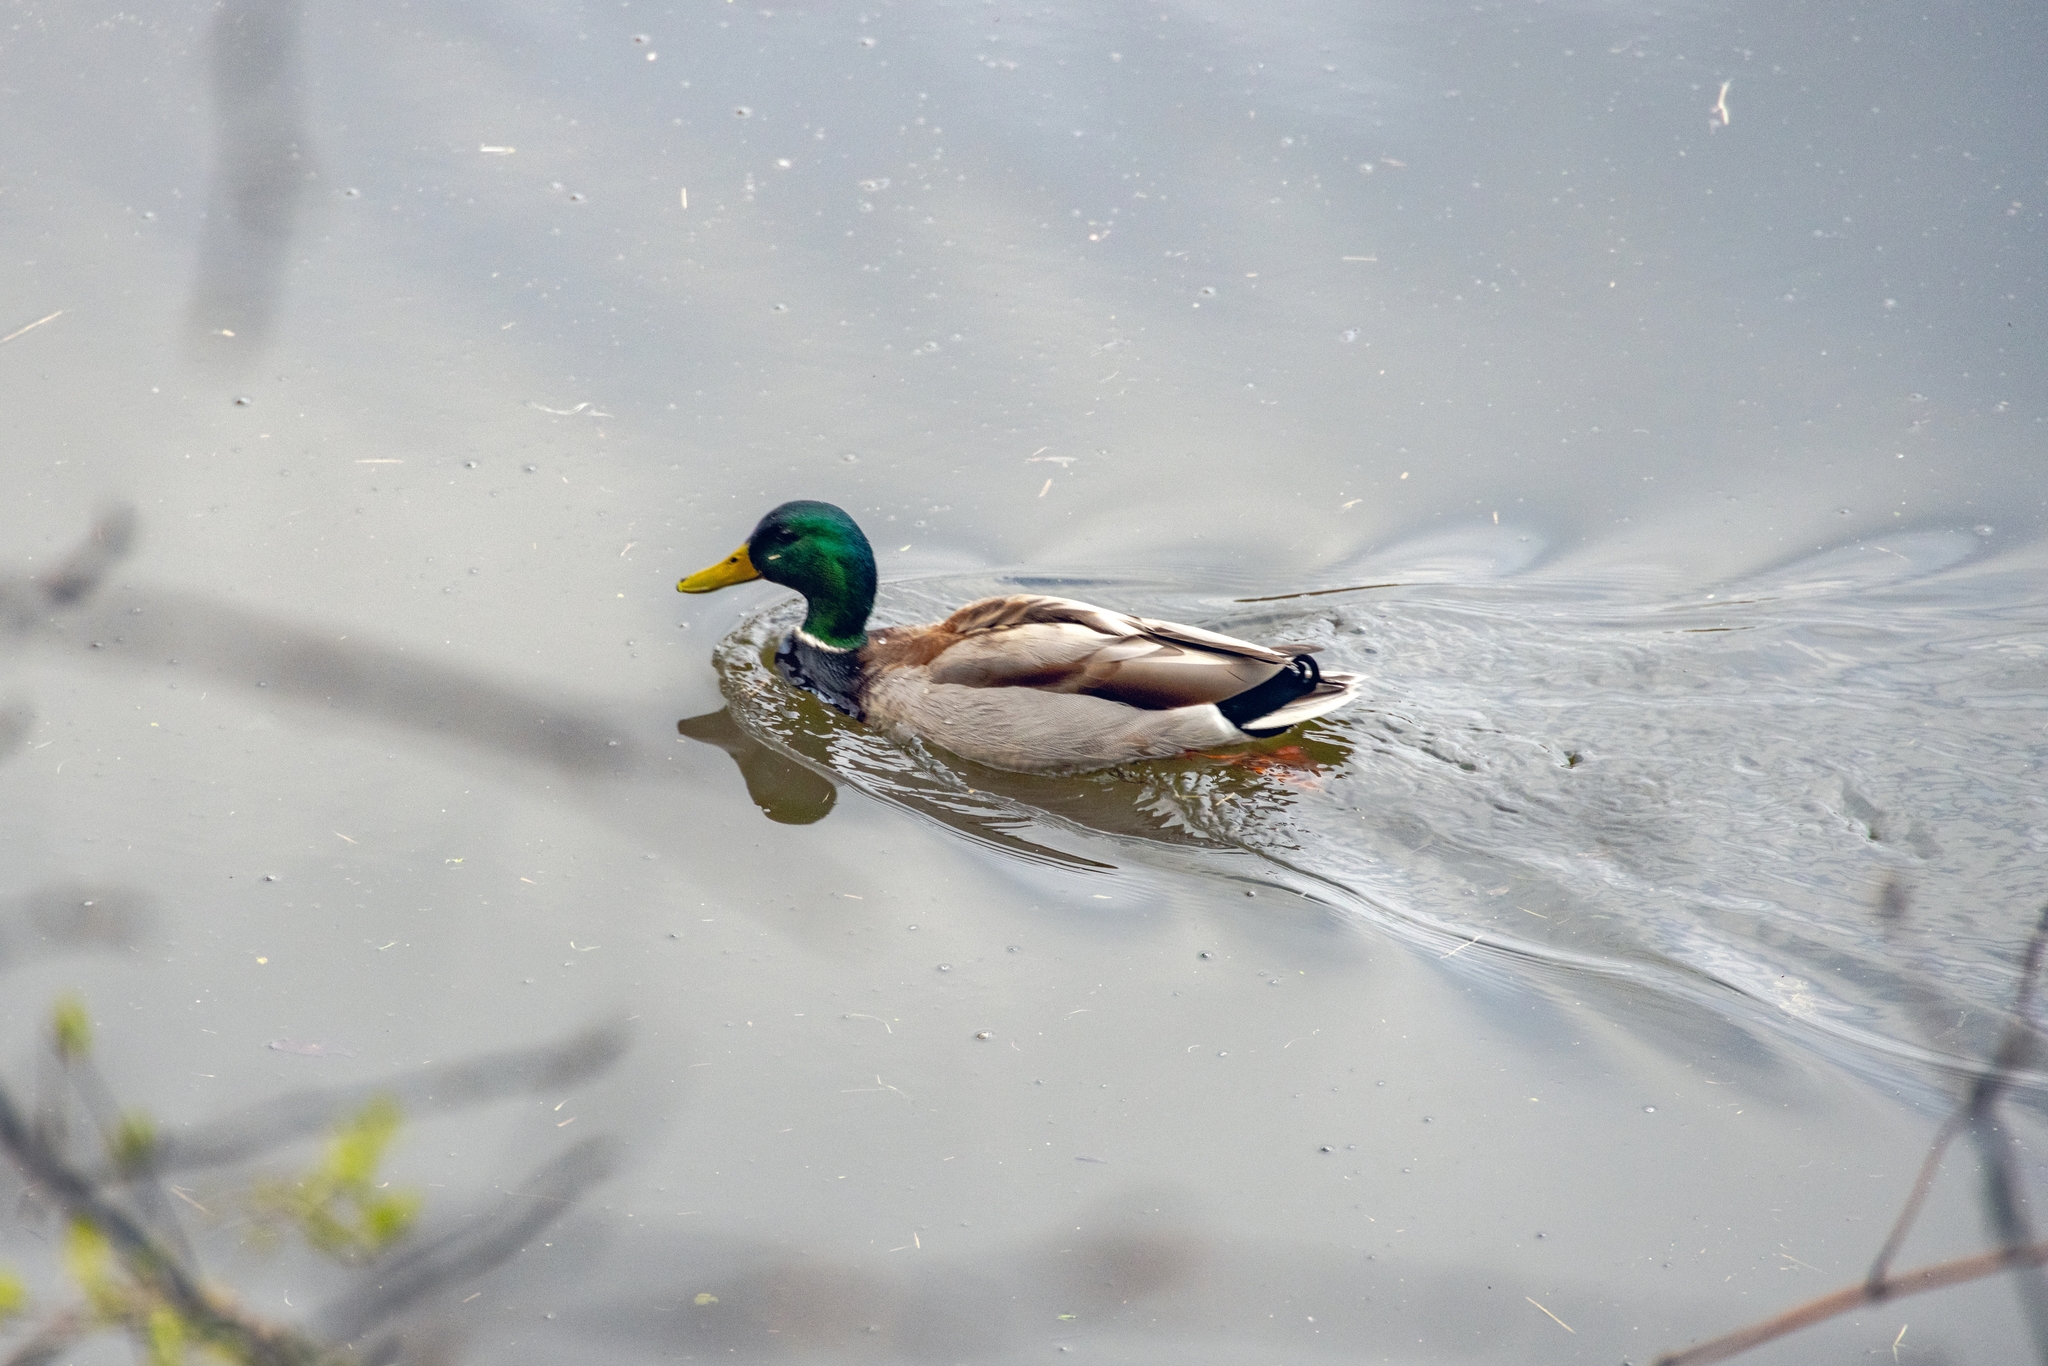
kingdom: Animalia
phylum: Chordata
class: Aves
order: Anseriformes
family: Anatidae
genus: Anas
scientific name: Anas platyrhynchos
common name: Mallard
